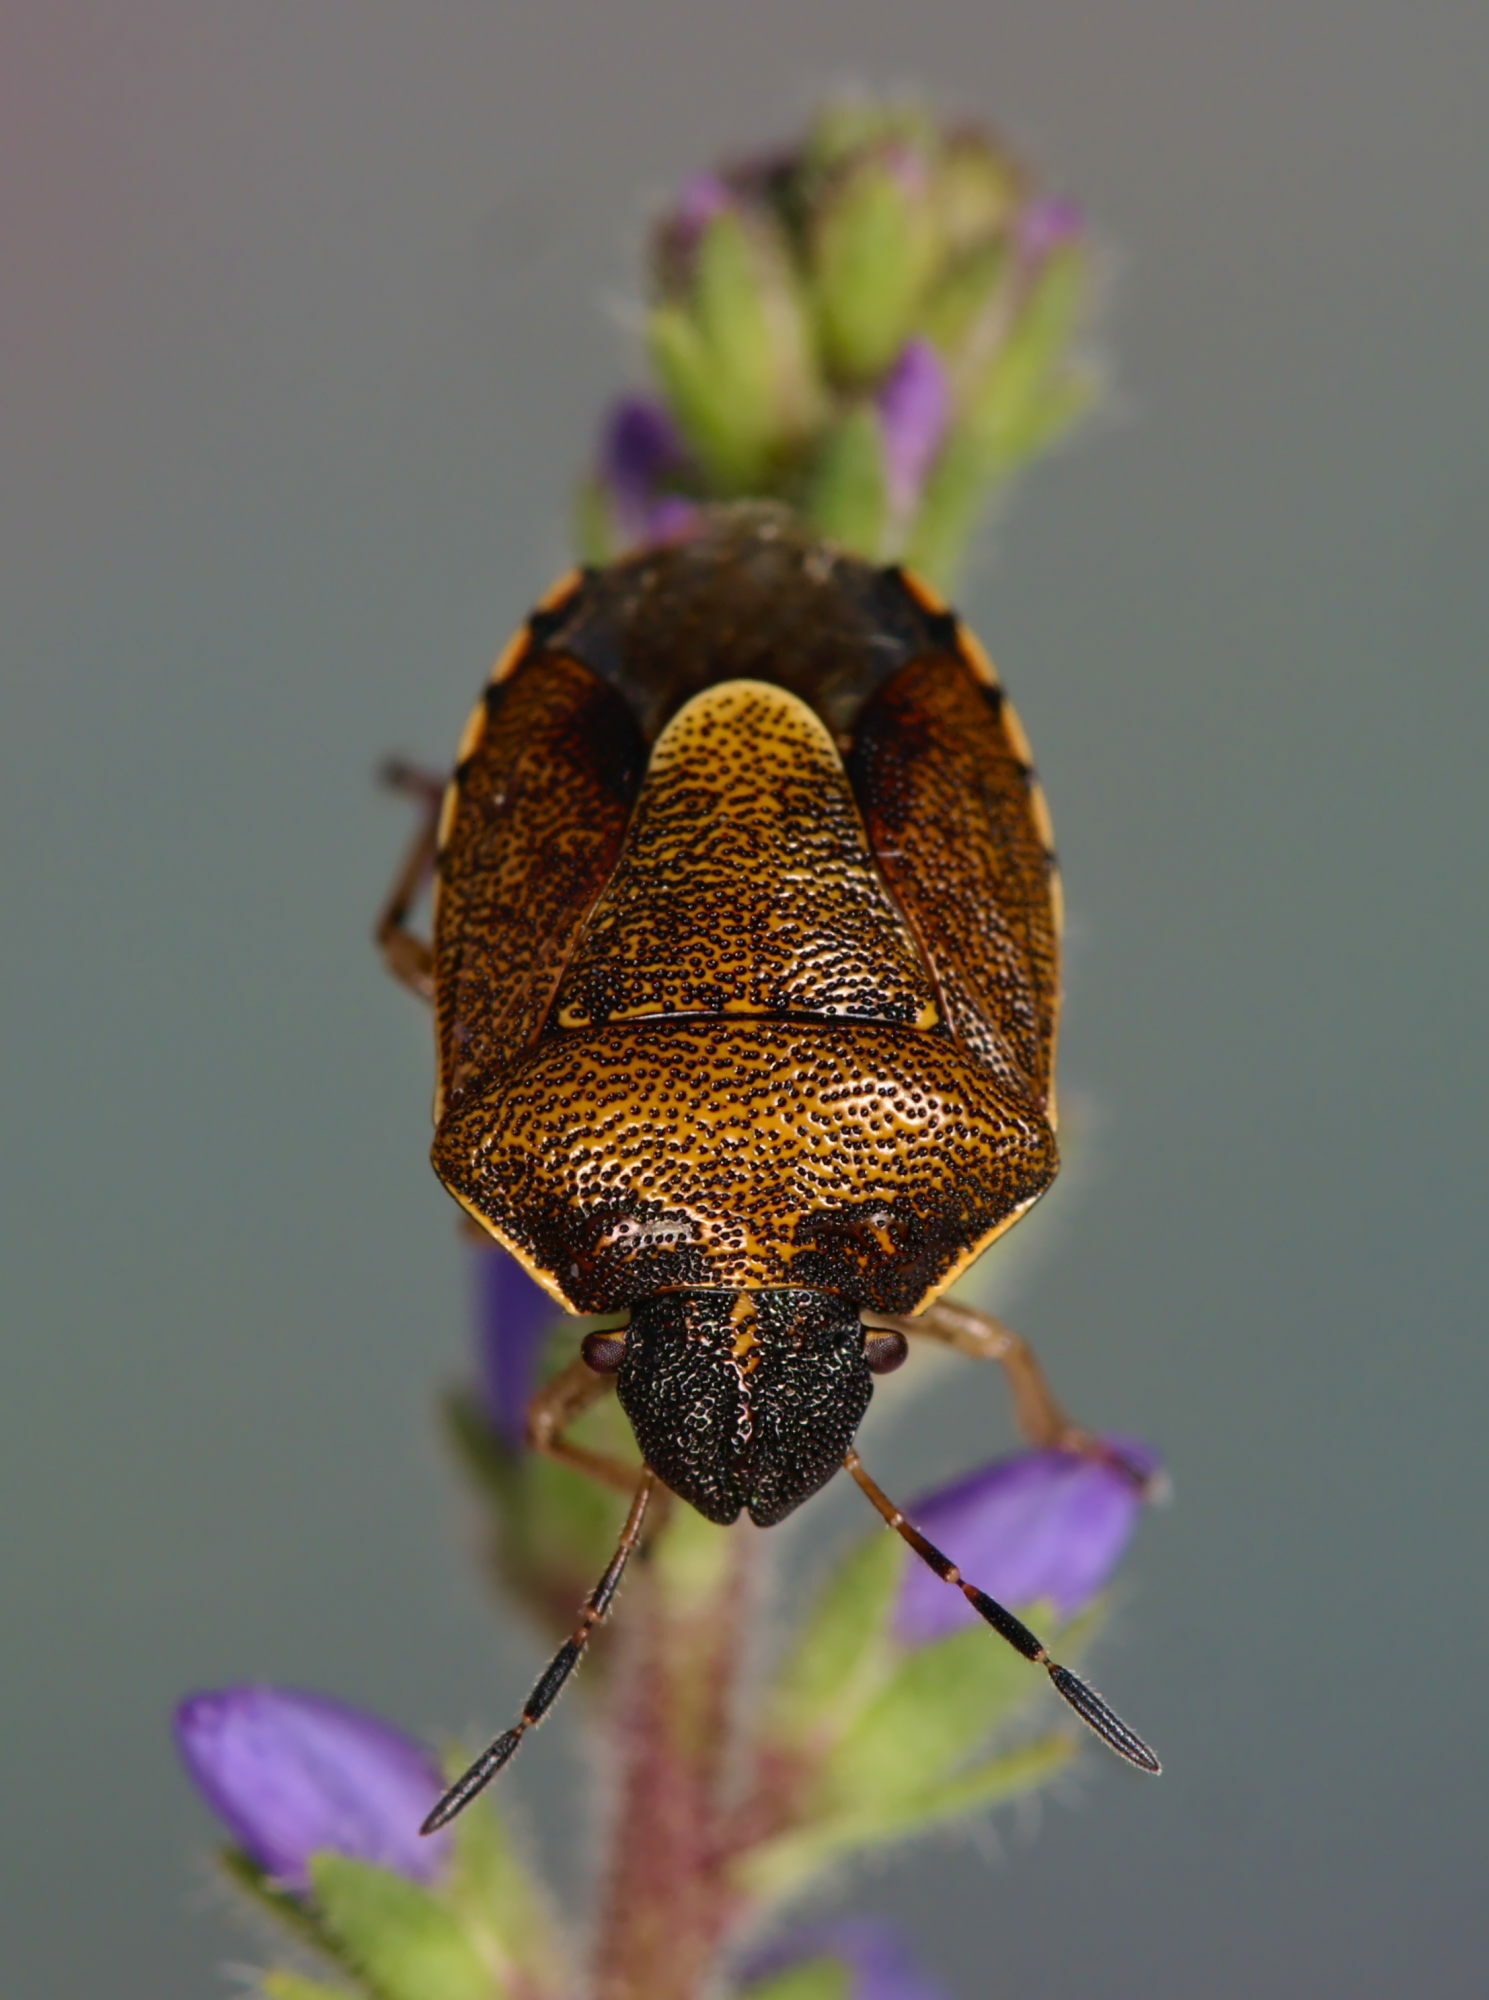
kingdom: Animalia
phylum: Arthropoda
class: Insecta
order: Hemiptera
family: Pentatomidae
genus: Rubiconia
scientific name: Rubiconia intermedia
